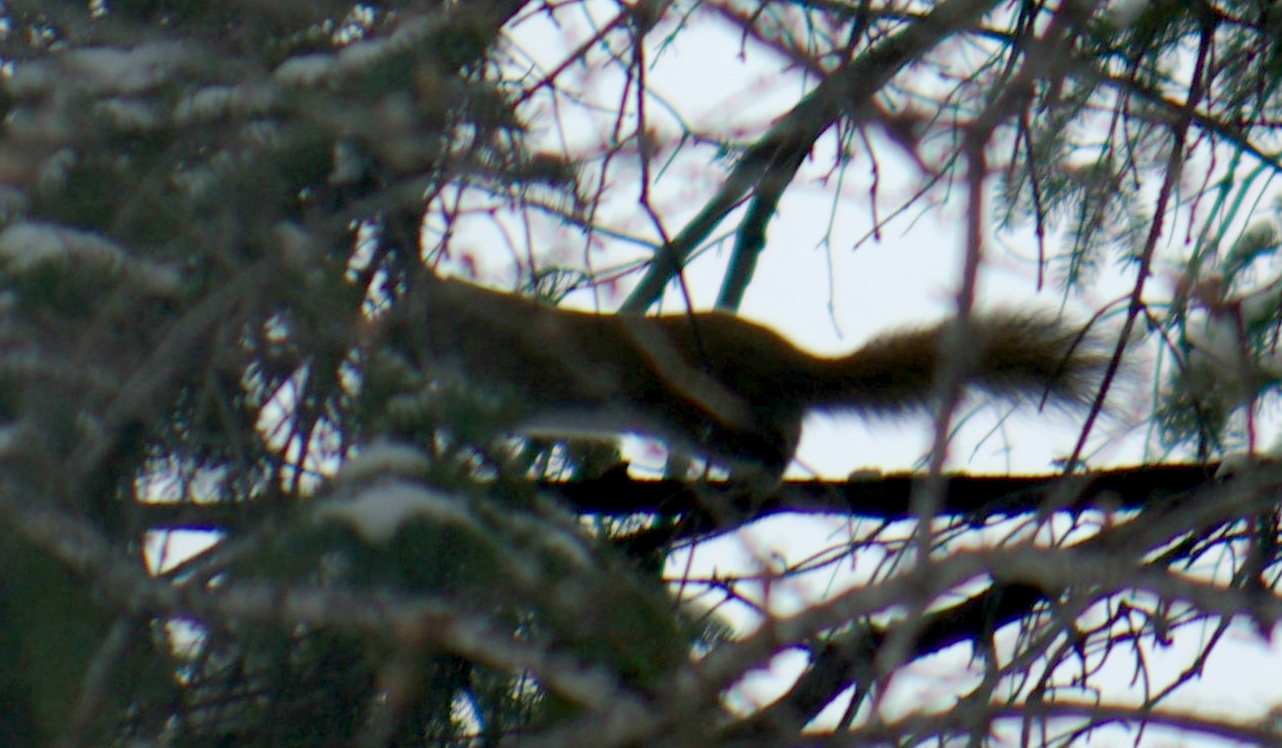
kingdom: Animalia
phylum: Chordata
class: Mammalia
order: Rodentia
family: Sciuridae
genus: Tamiasciurus
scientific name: Tamiasciurus hudsonicus
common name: Red squirrel
